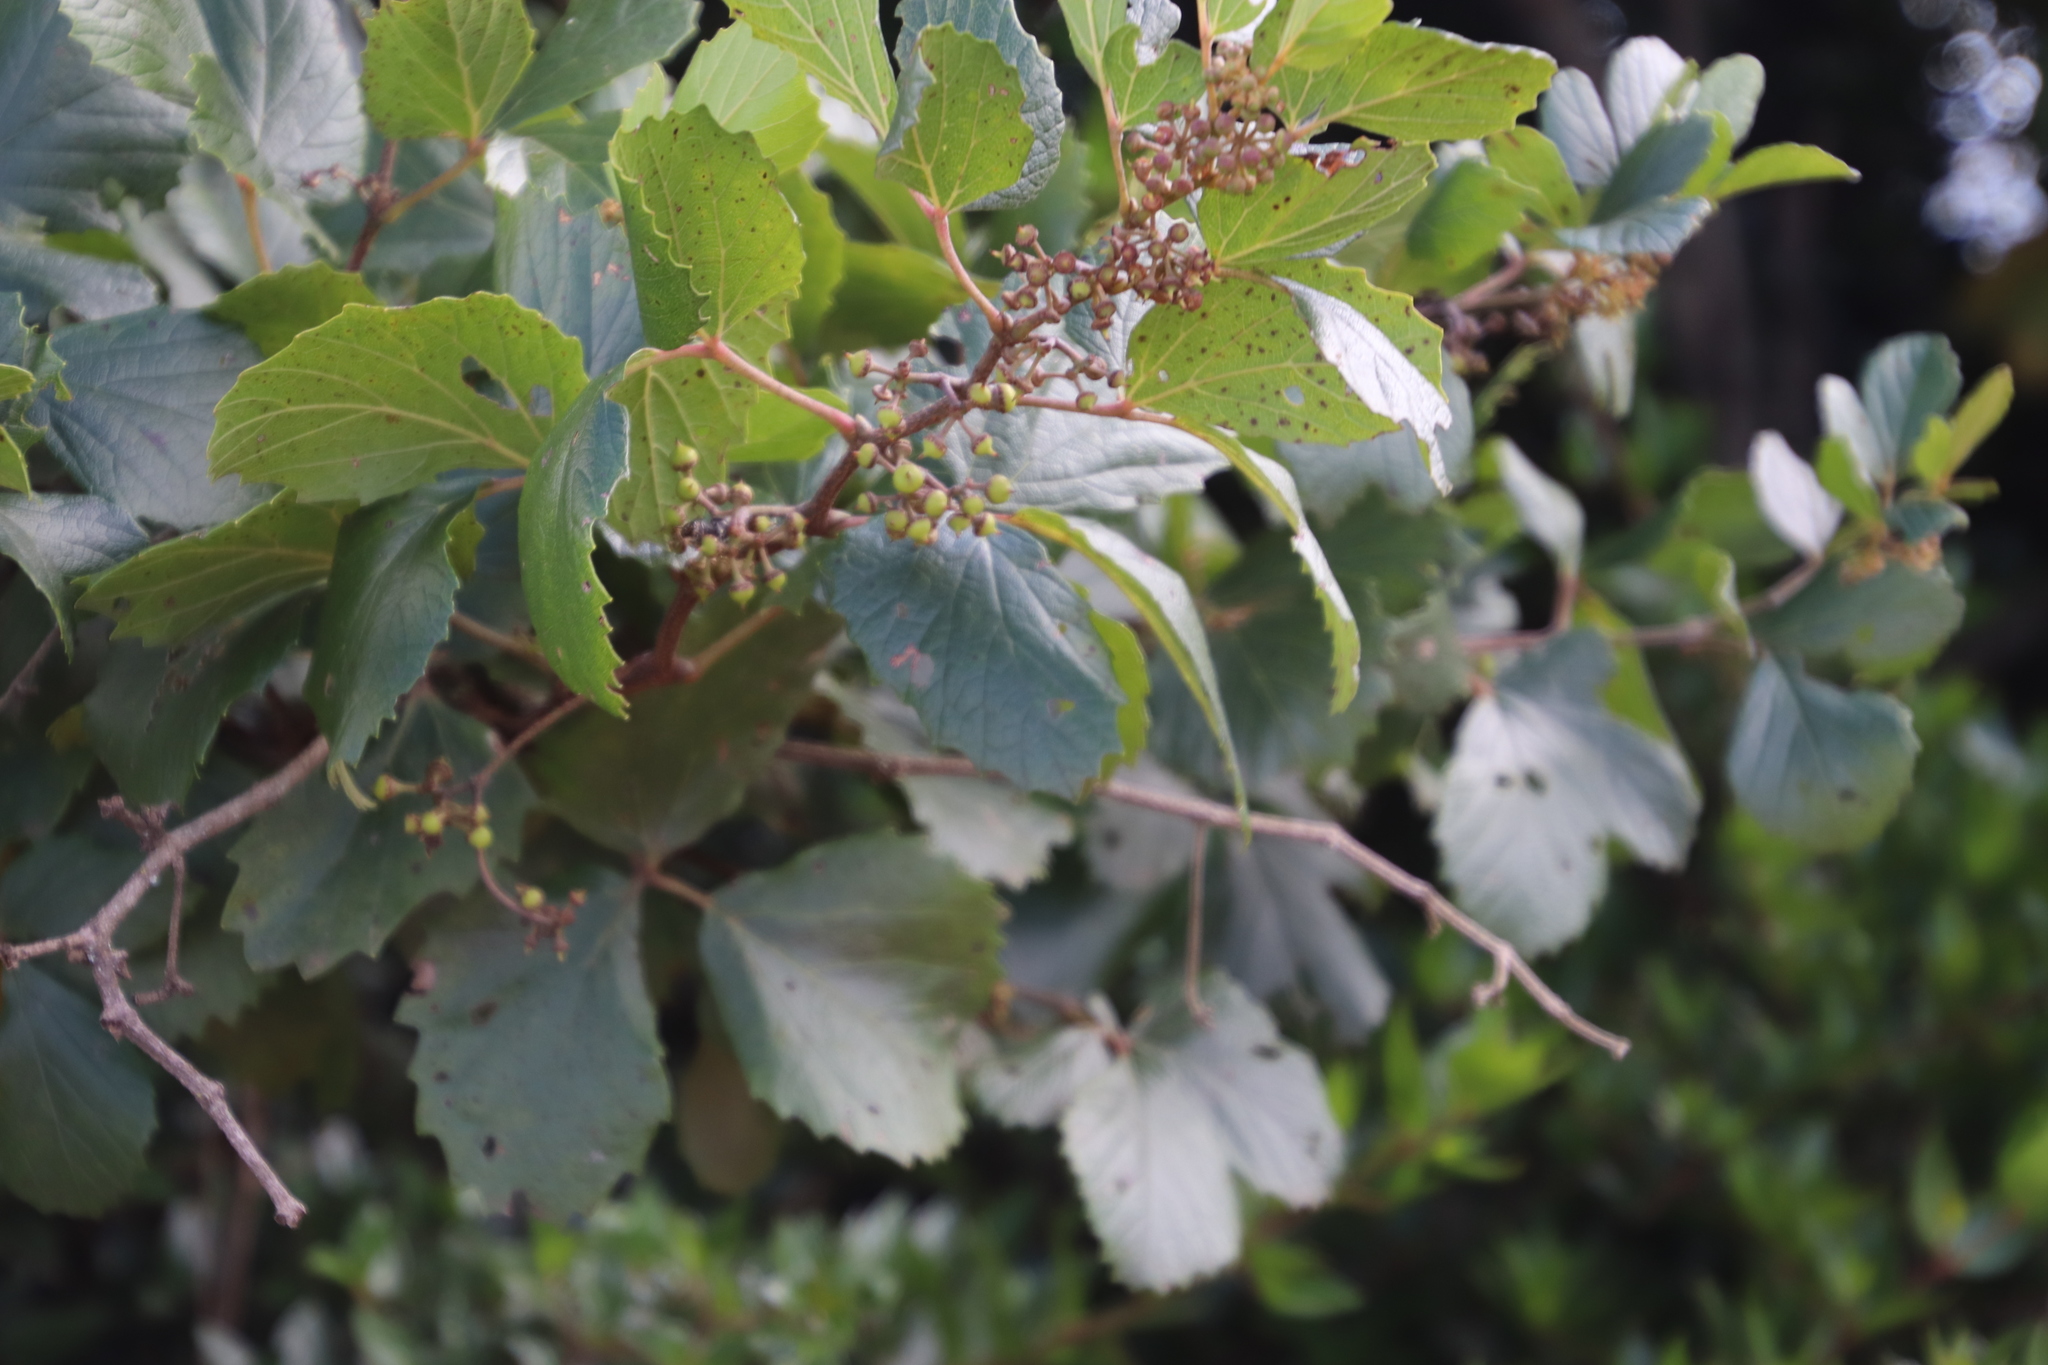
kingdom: Plantae
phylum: Tracheophyta
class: Magnoliopsida
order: Vitales
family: Vitaceae
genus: Rhoicissus
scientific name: Rhoicissus tridentata
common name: Common forest grape
